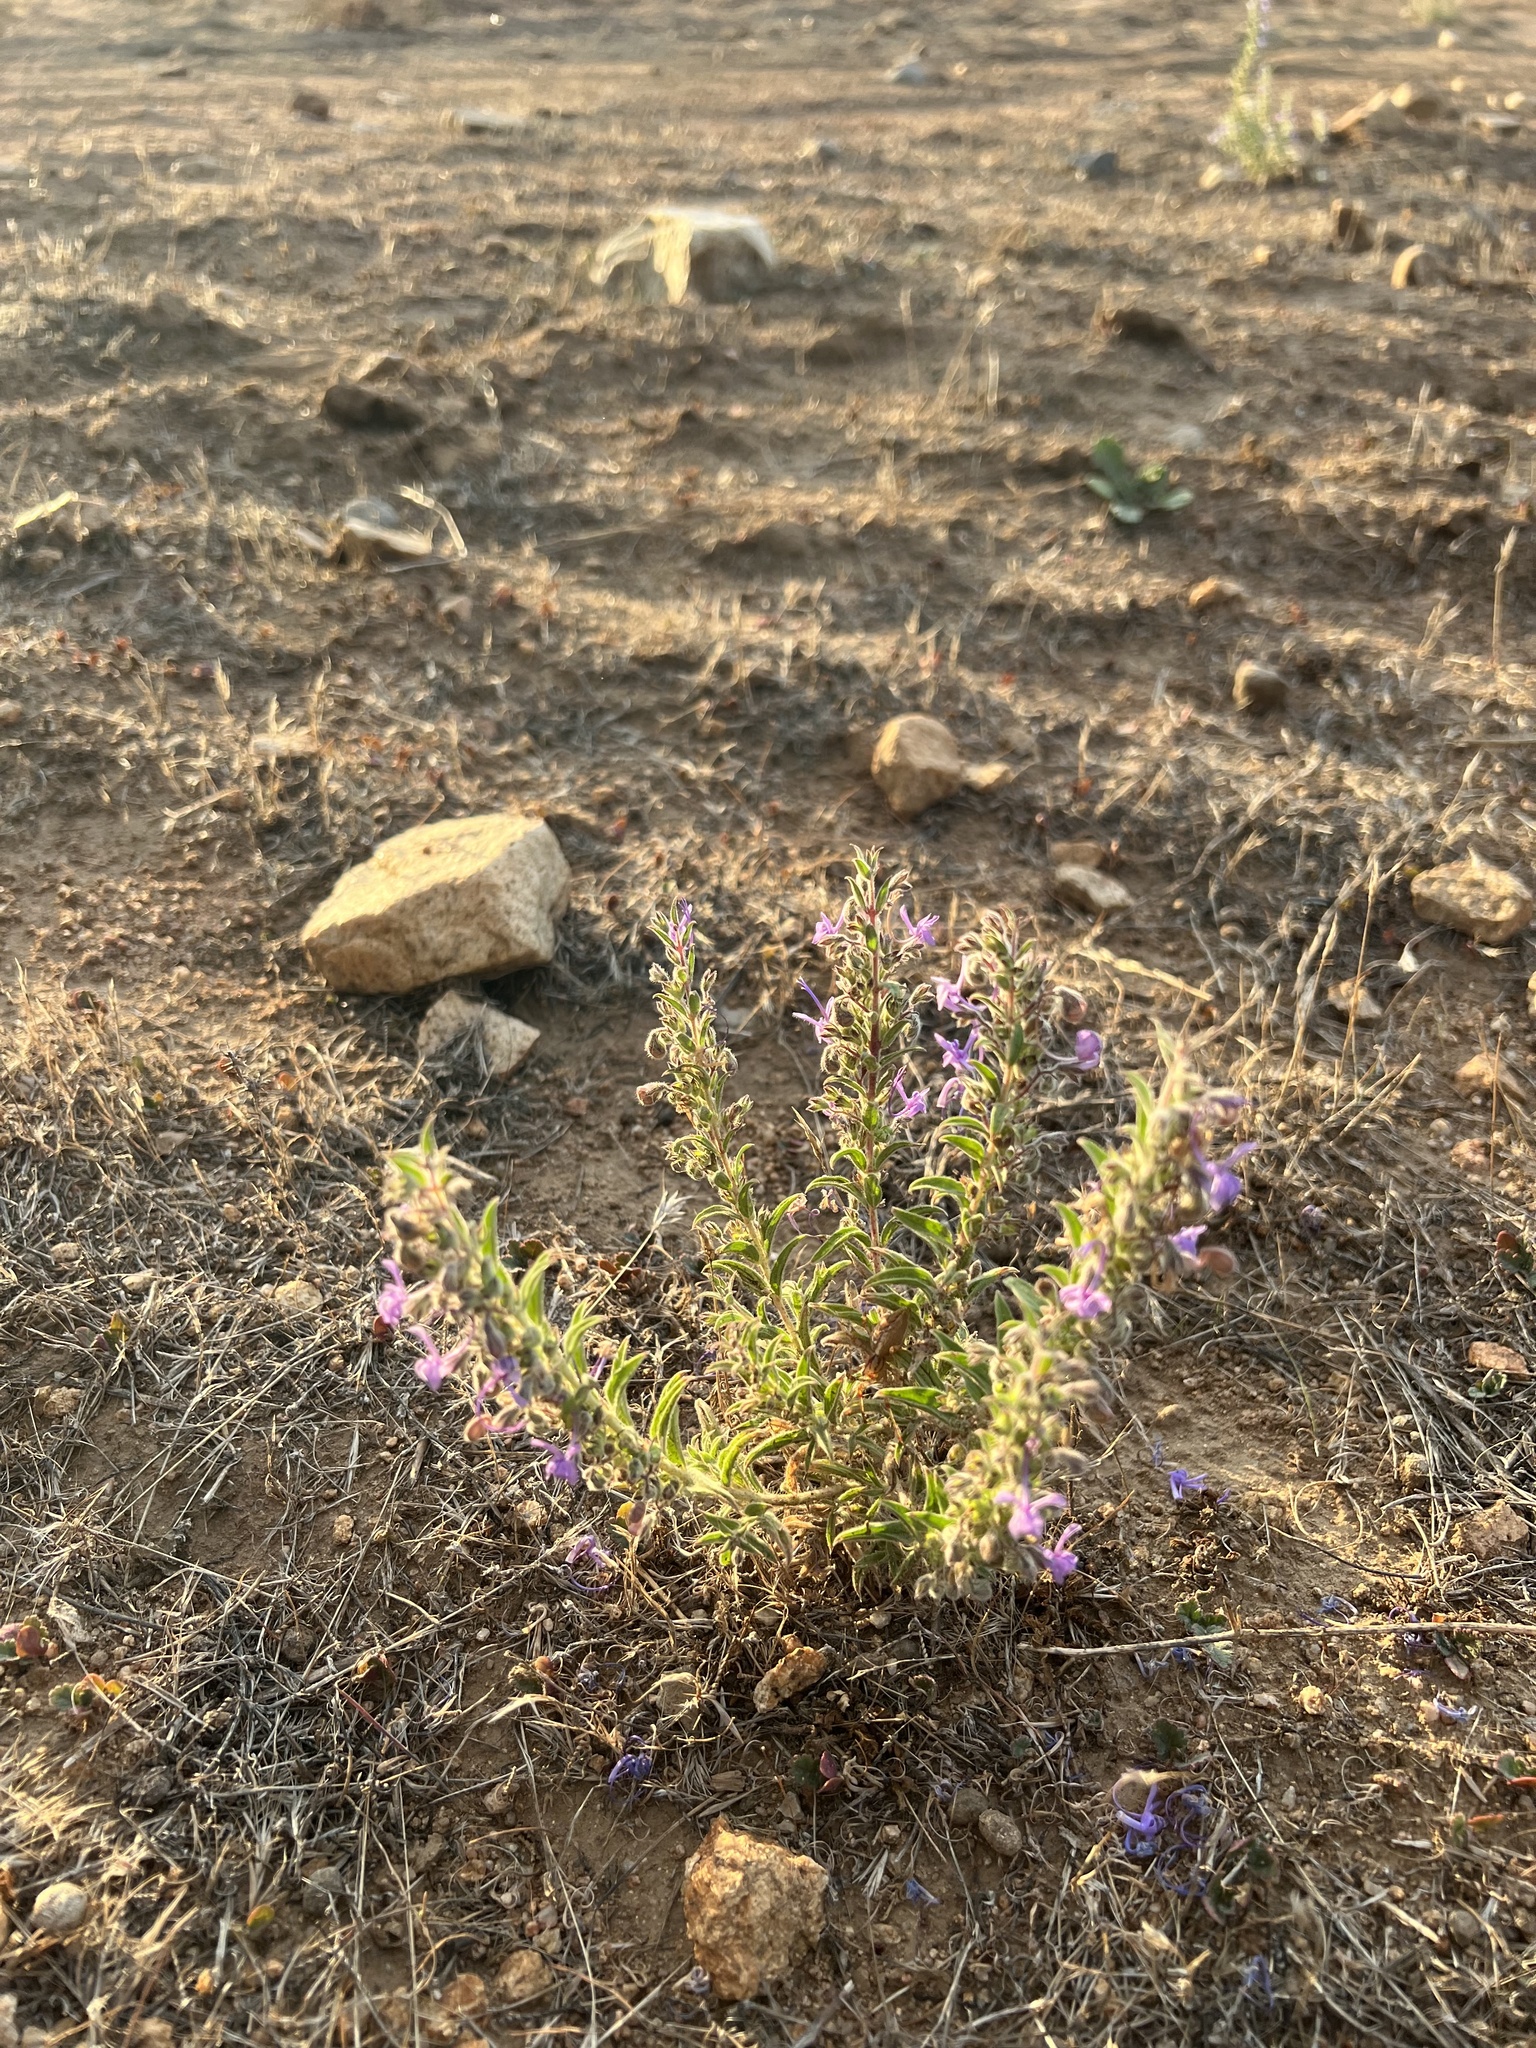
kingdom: Plantae
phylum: Tracheophyta
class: Magnoliopsida
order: Lamiales
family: Lamiaceae
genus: Trichostema
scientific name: Trichostema lanceolatum
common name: Vinegar-weed
